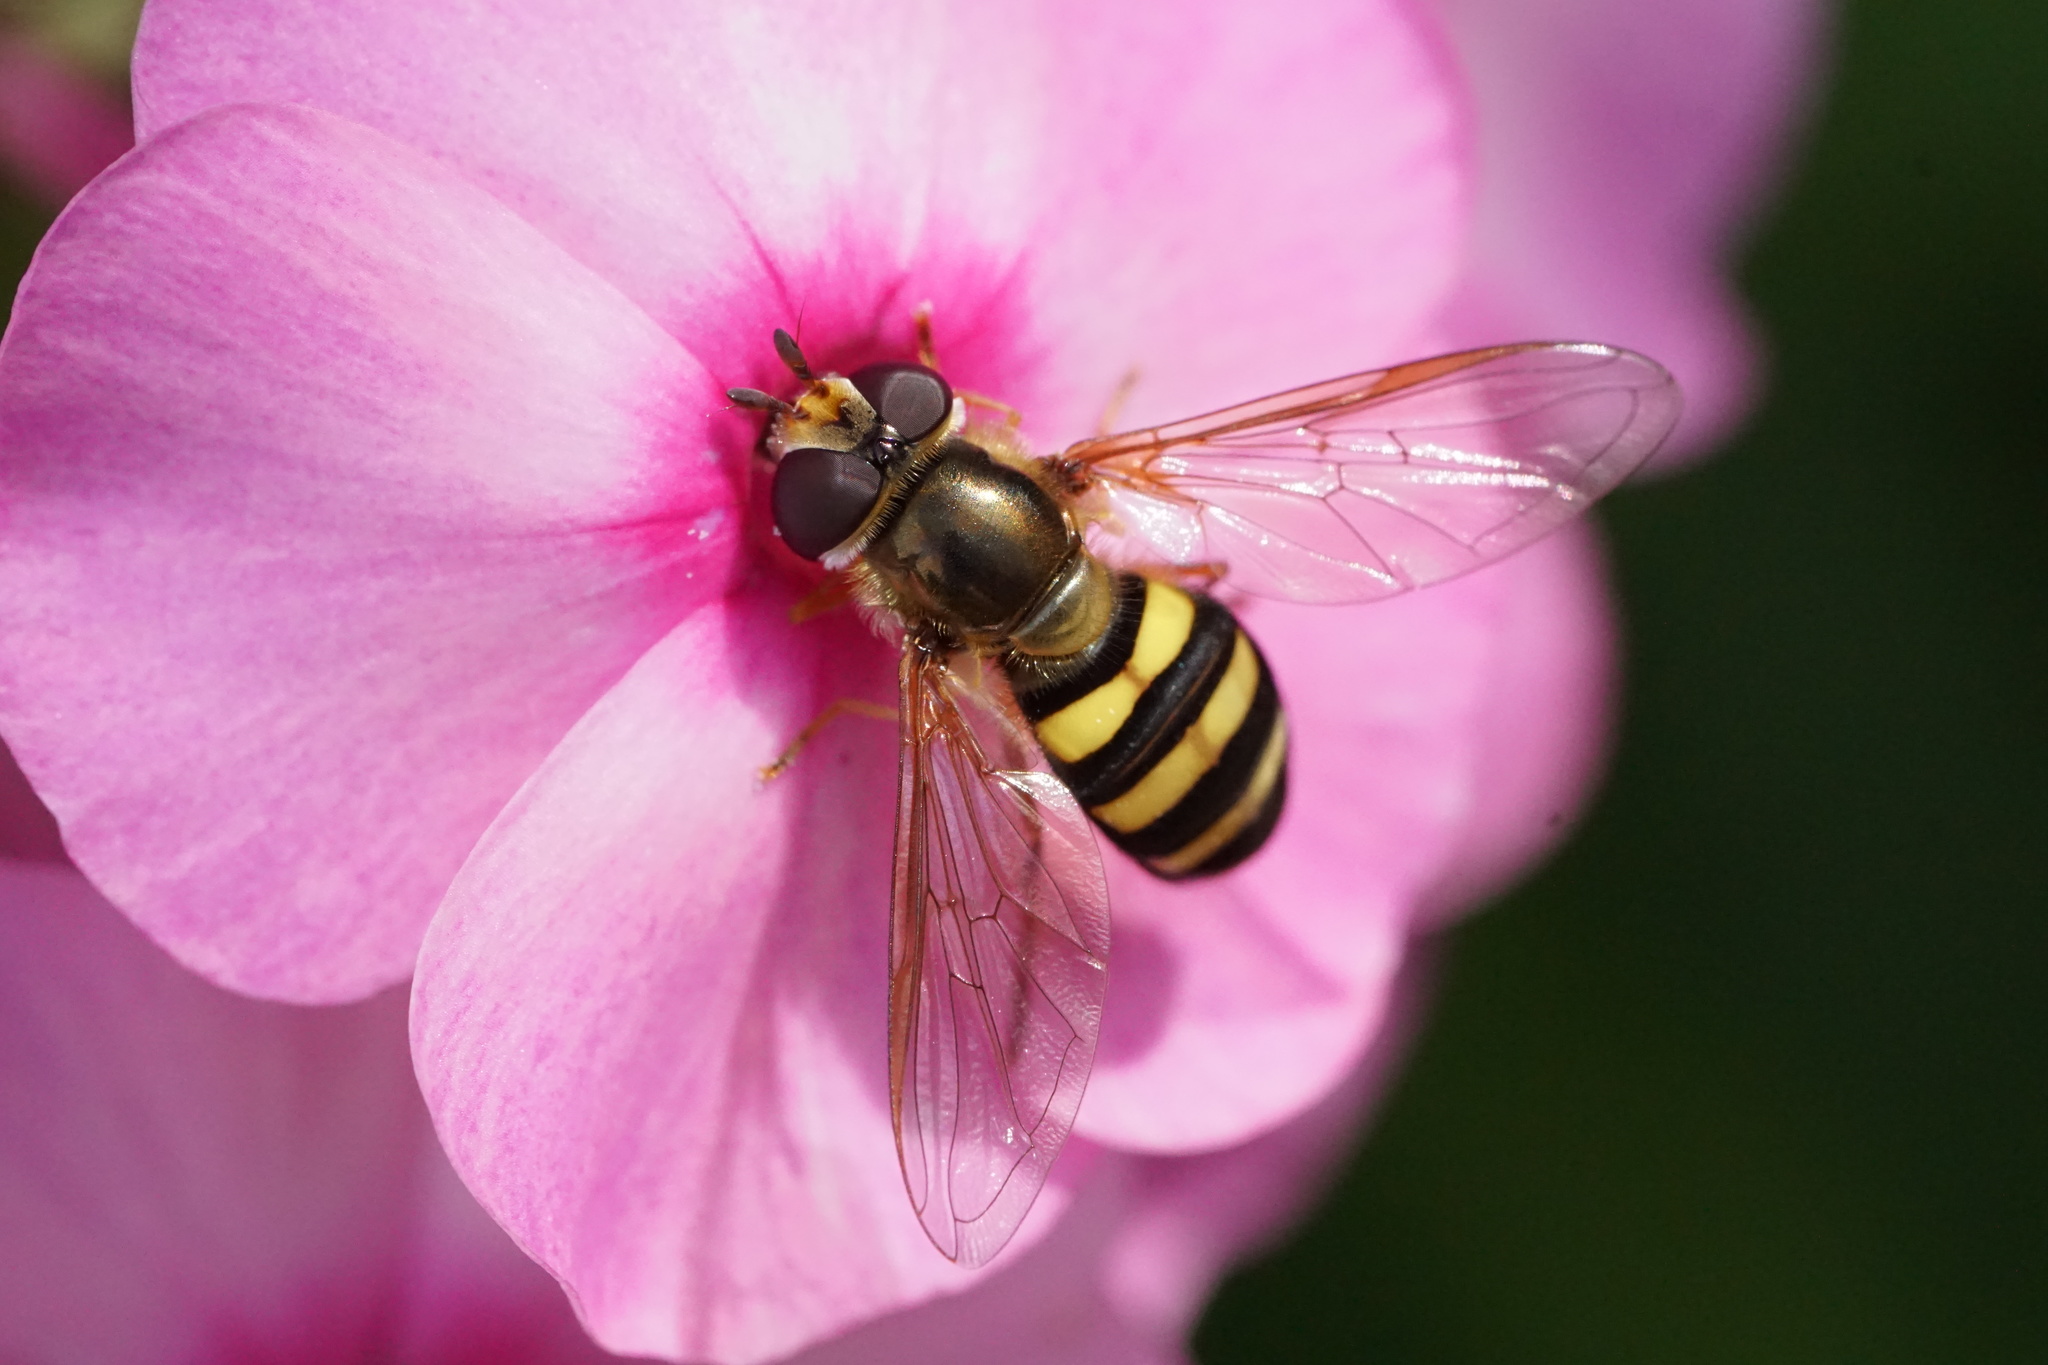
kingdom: Animalia
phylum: Arthropoda
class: Insecta
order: Diptera
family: Syrphidae
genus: Eupeodes
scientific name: Eupeodes
